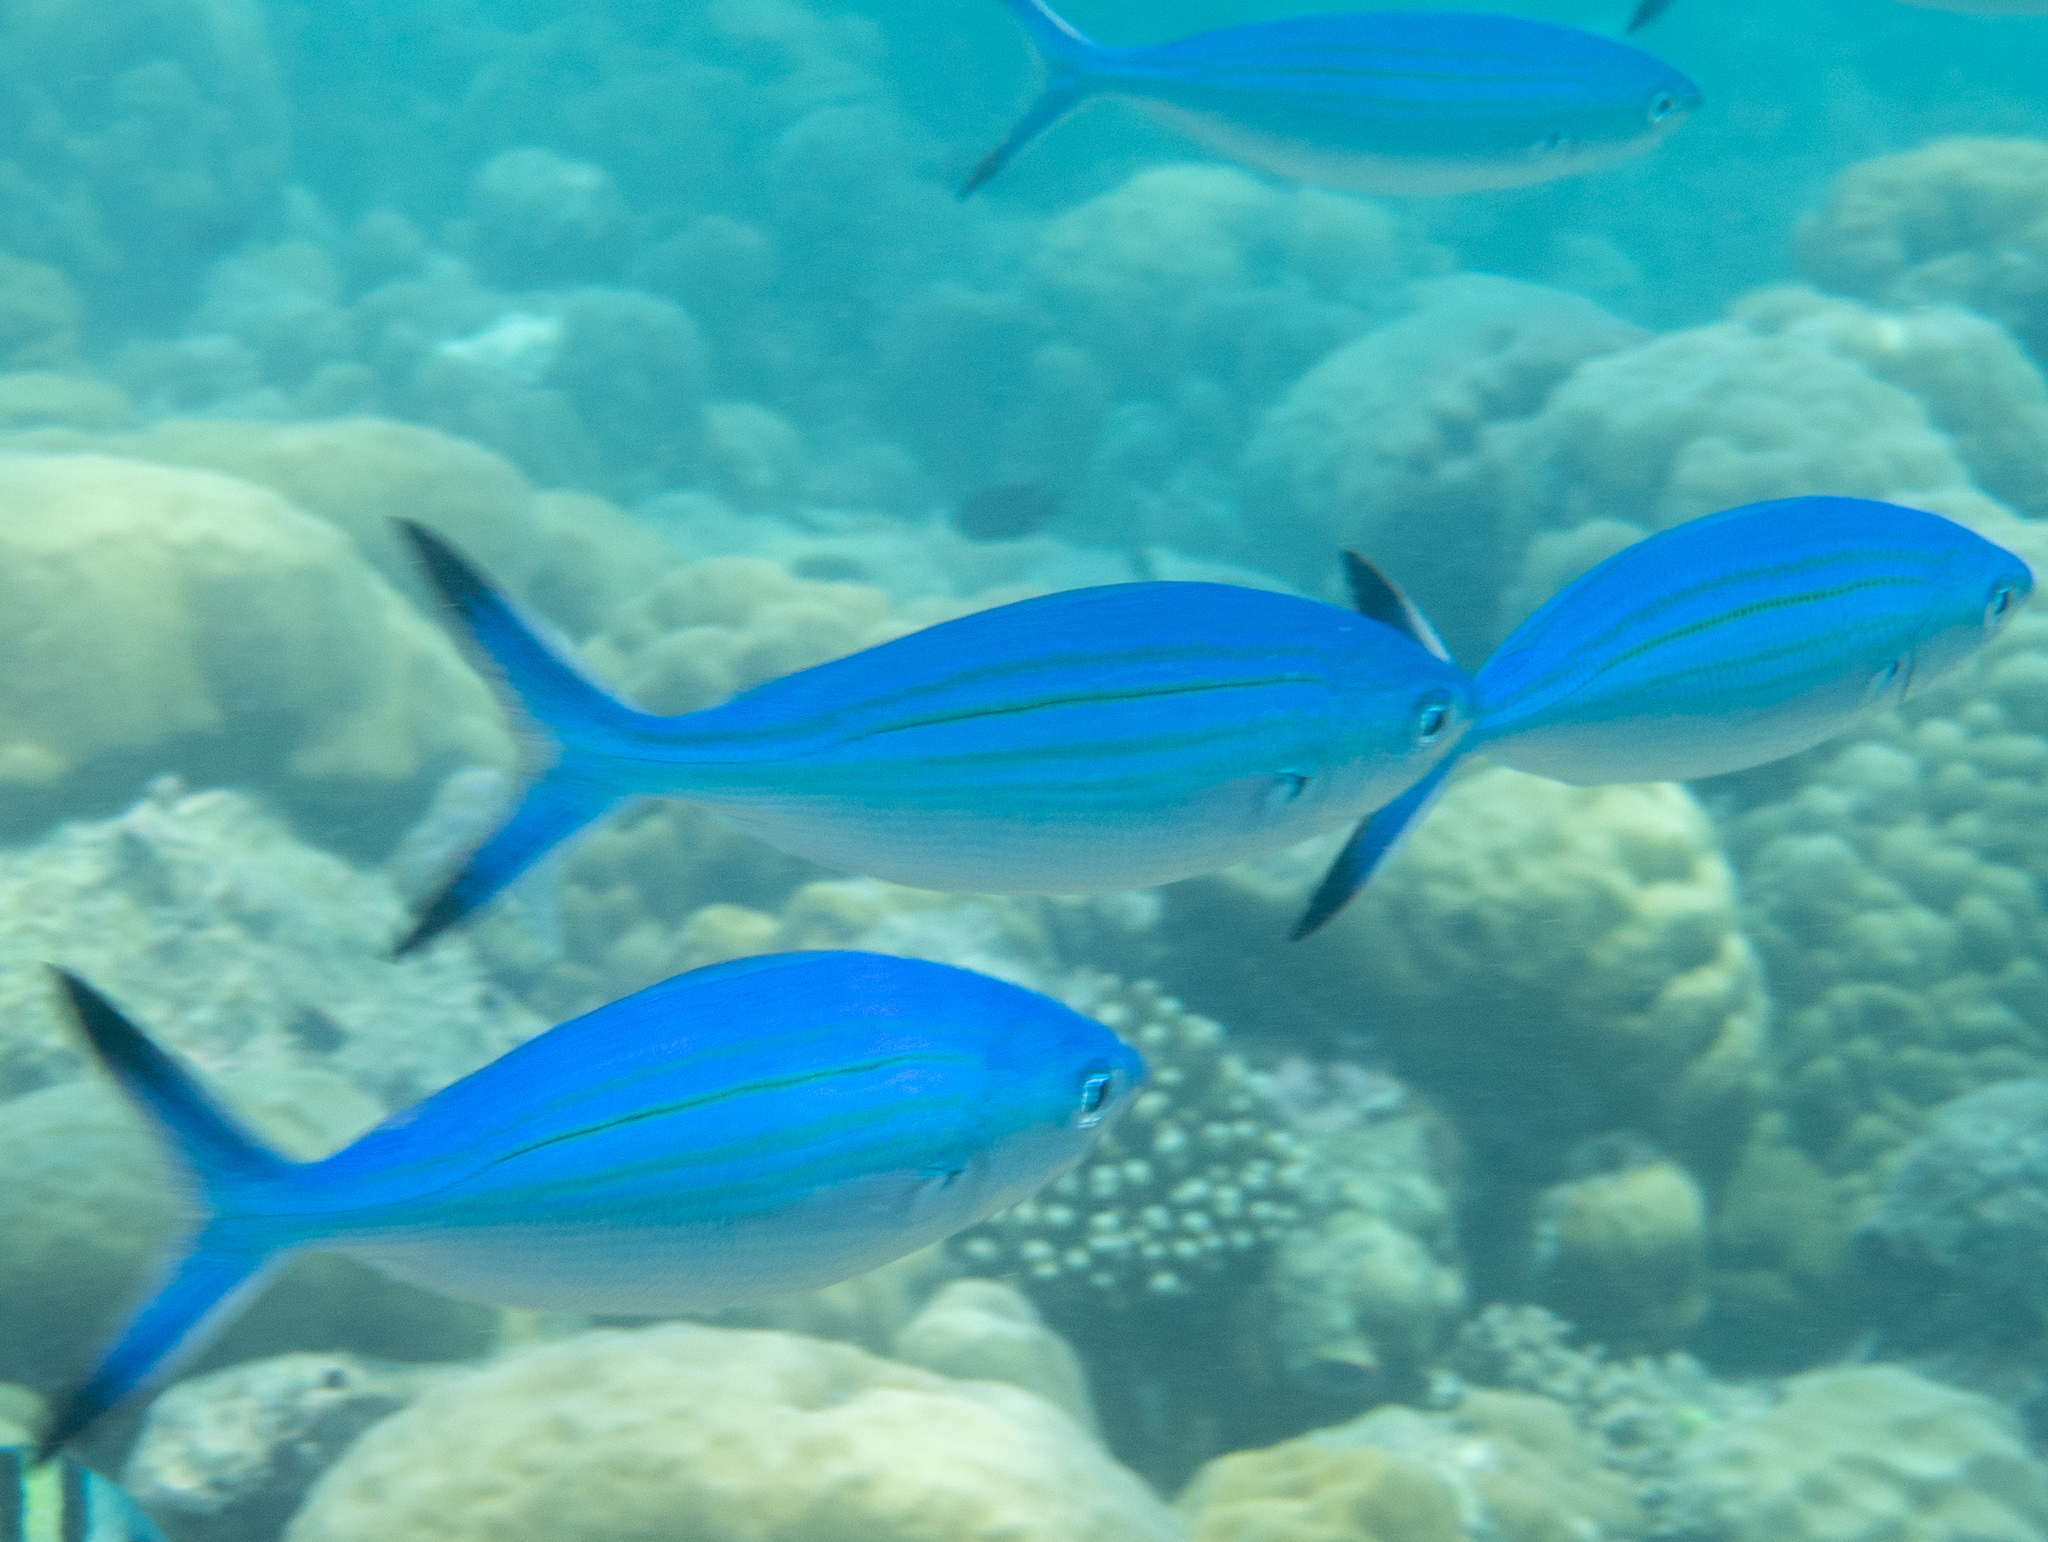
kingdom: Animalia
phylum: Chordata
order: Perciformes
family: Caesionidae
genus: Caesio
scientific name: Caesio varilineata
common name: Variable-lined fusilier
